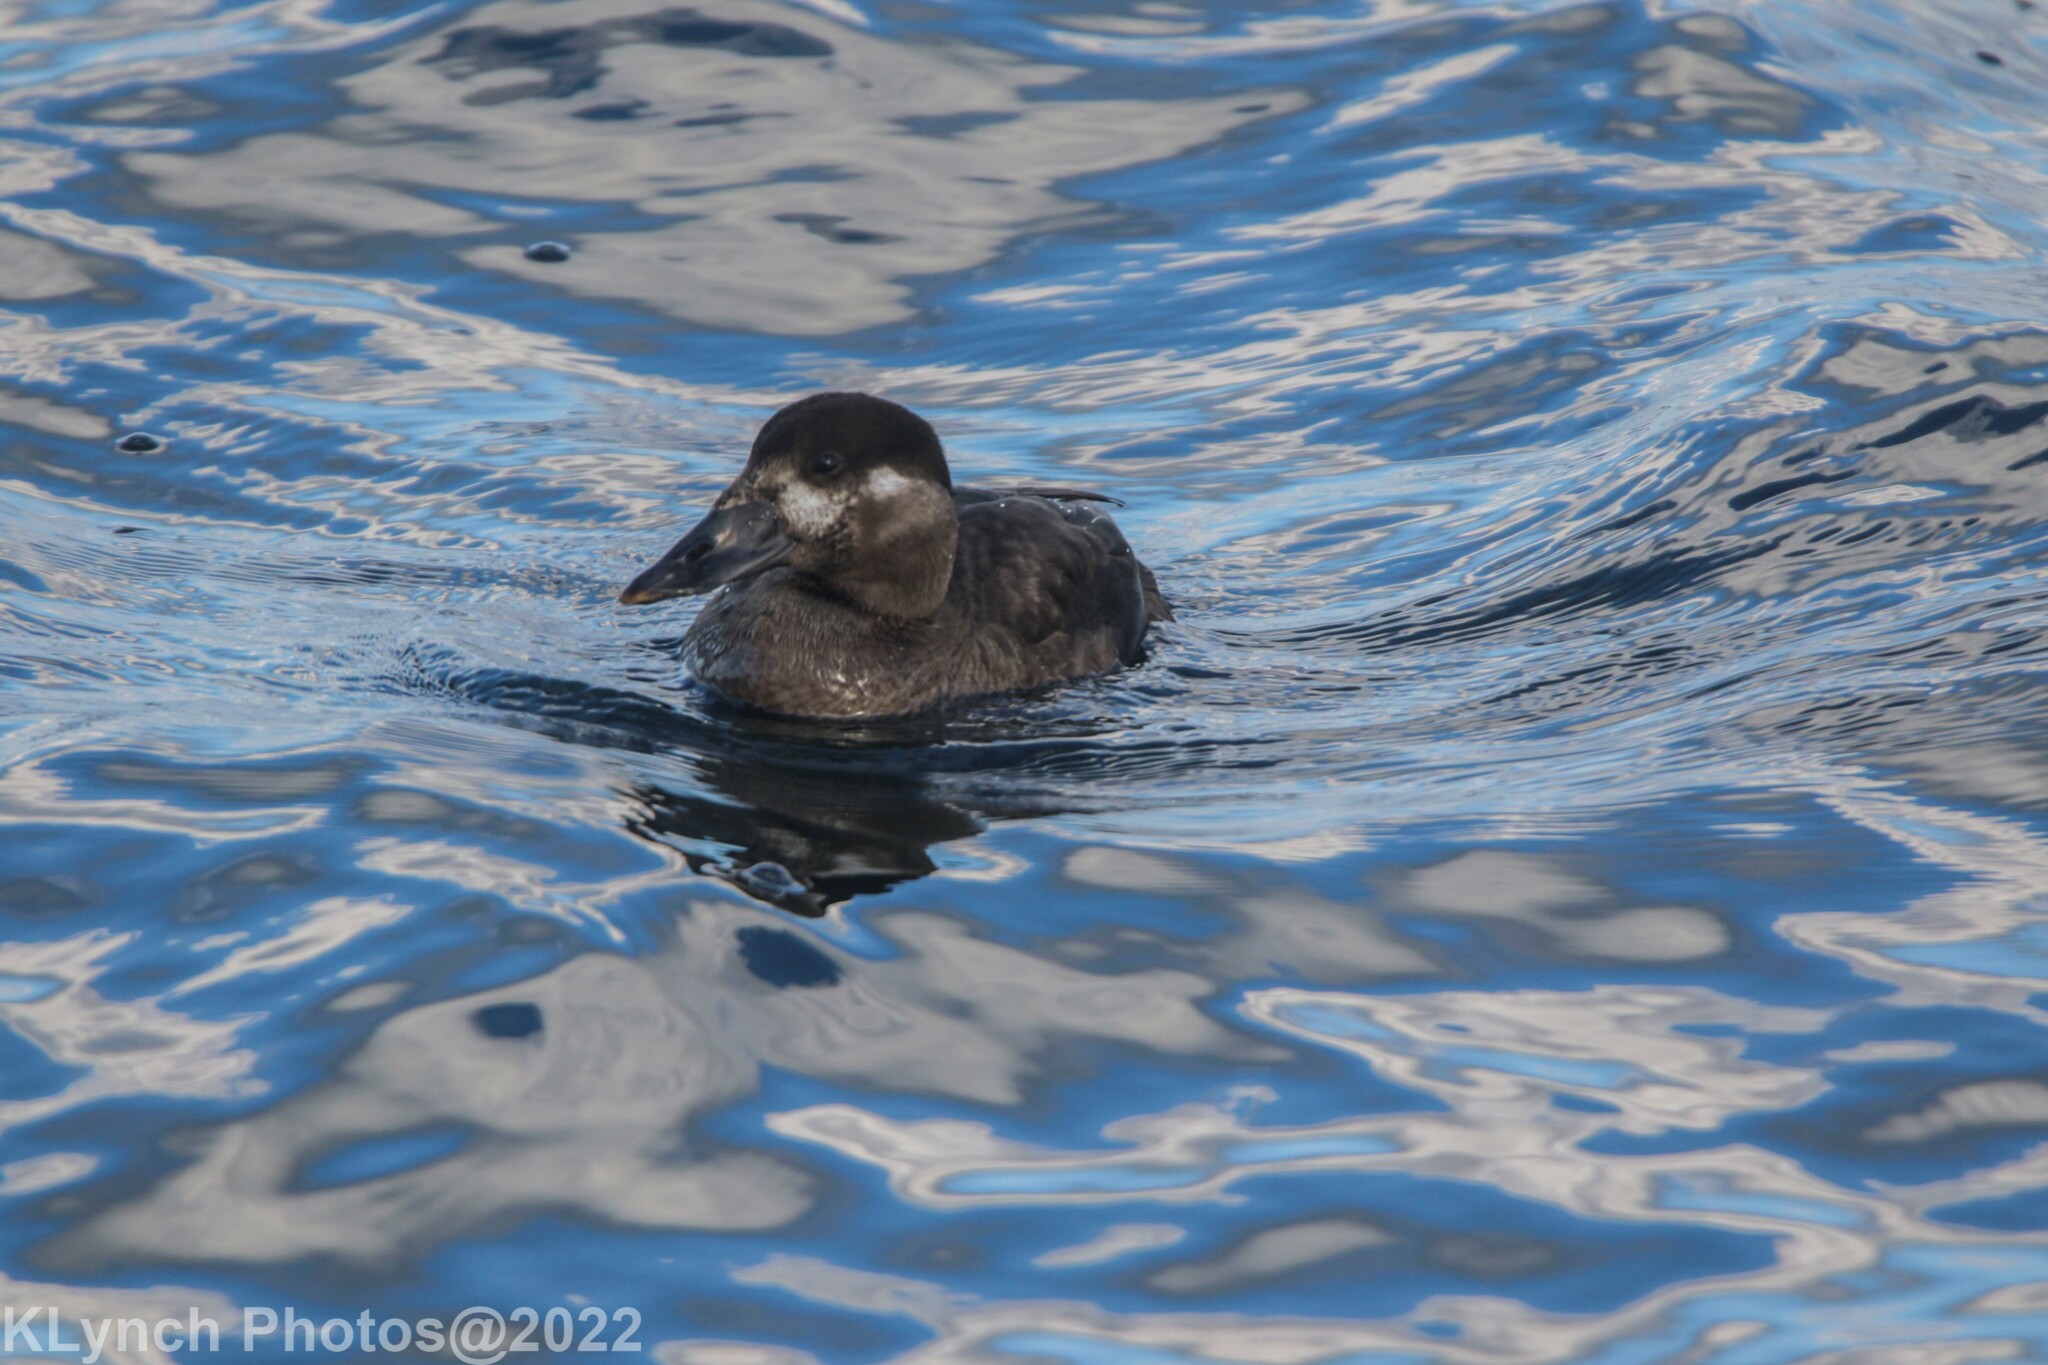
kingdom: Animalia
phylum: Chordata
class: Aves
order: Anseriformes
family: Anatidae
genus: Melanitta
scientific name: Melanitta perspicillata
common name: Surf scoter
